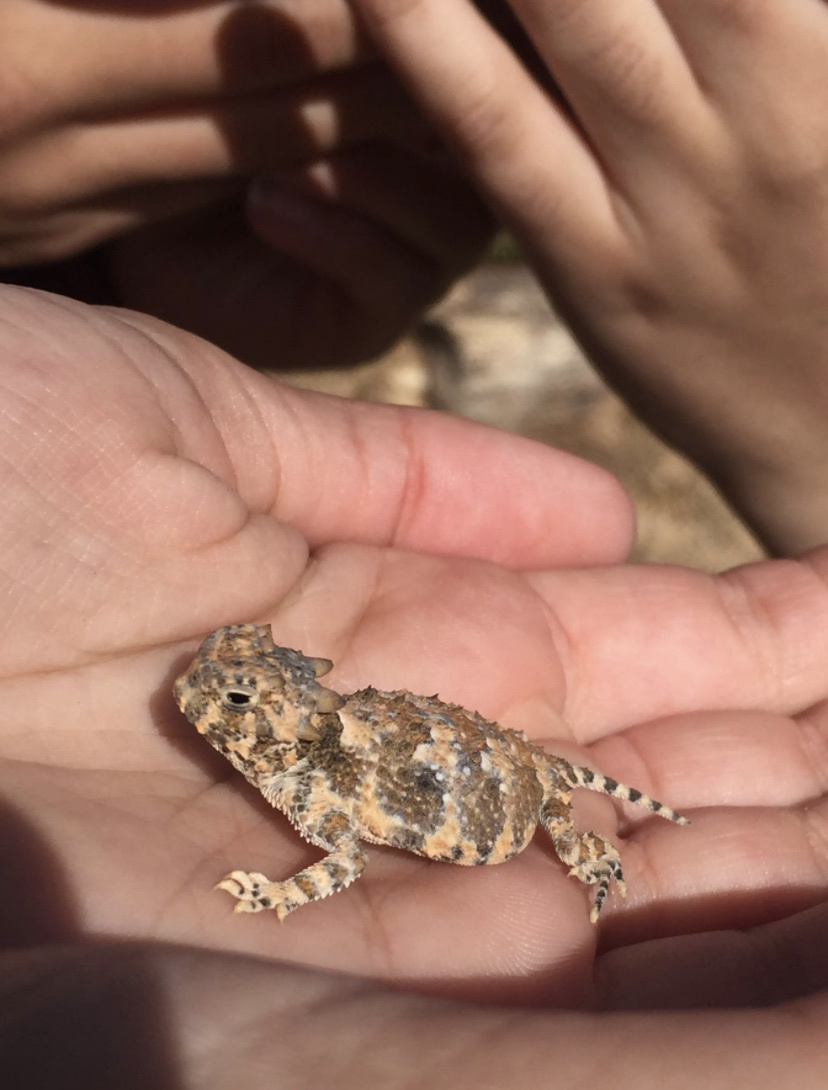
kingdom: Animalia
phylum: Chordata
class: Squamata
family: Phrynosomatidae
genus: Phrynosoma
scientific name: Phrynosoma platyrhinos
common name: Desert horned lizard
